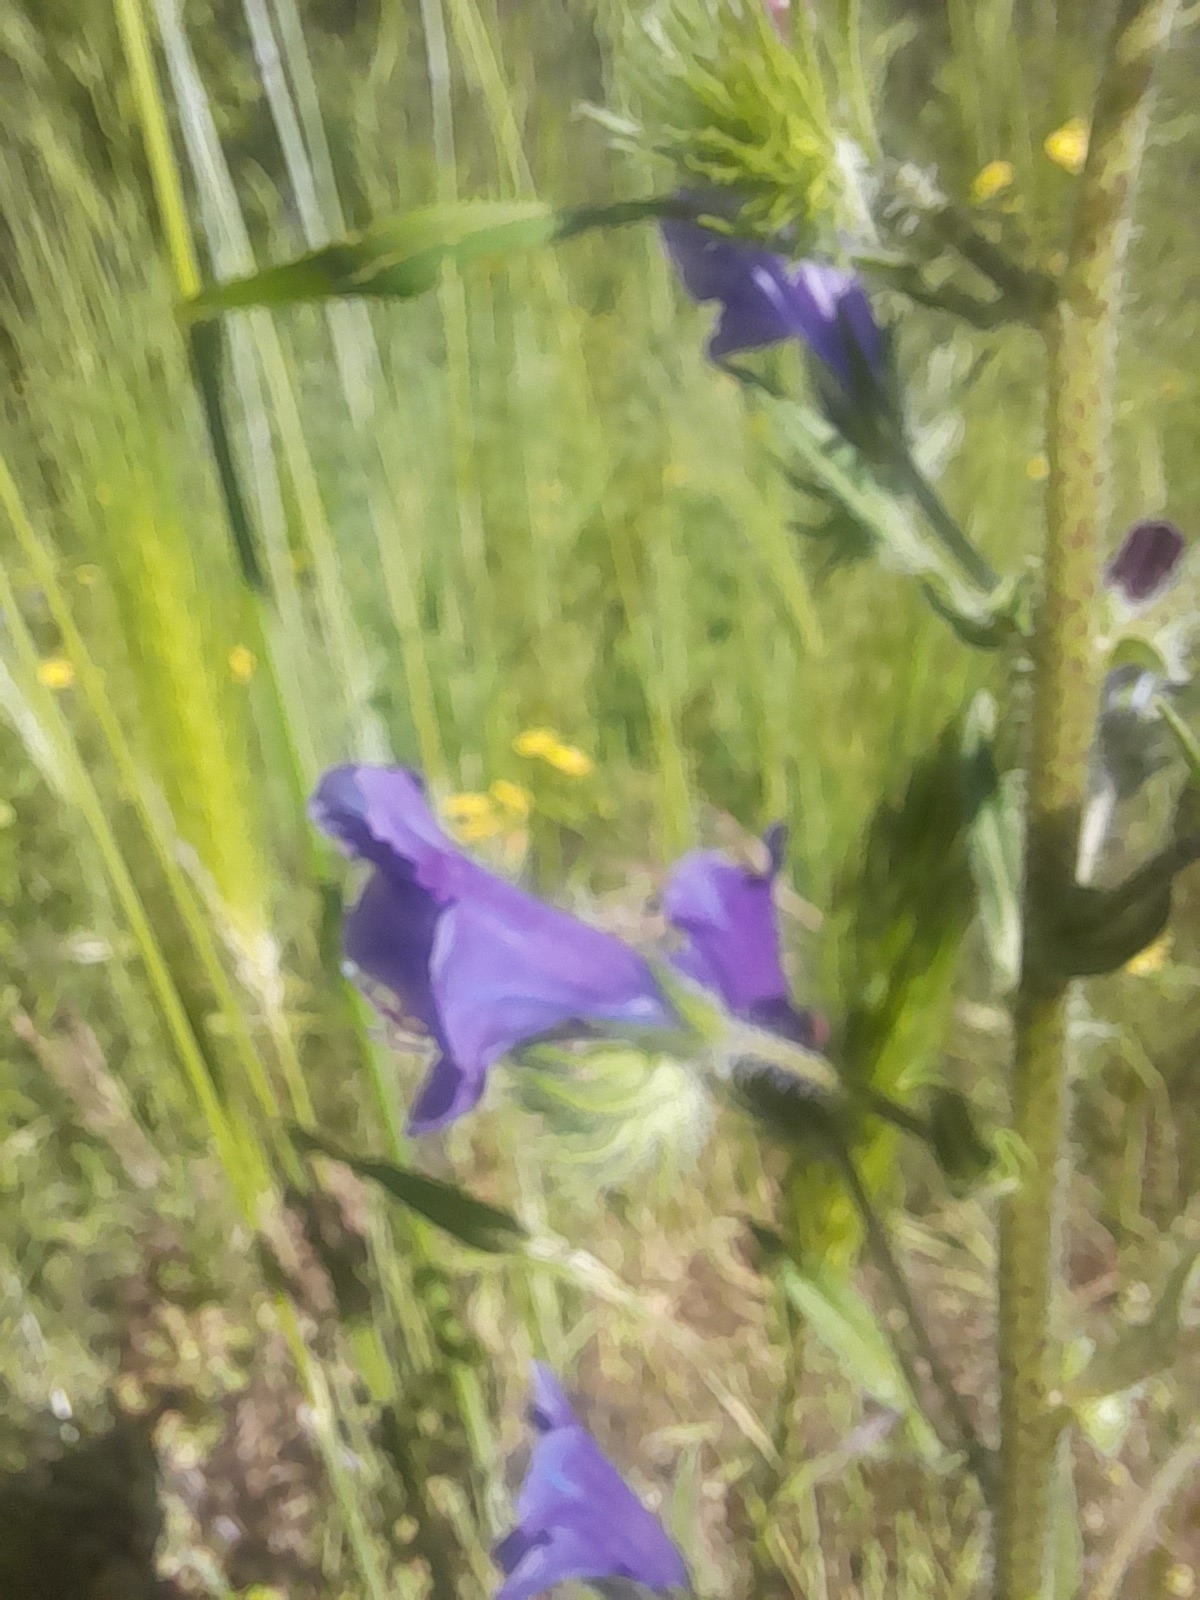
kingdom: Plantae
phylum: Tracheophyta
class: Magnoliopsida
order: Boraginales
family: Boraginaceae
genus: Echium
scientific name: Echium plantagineum
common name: Purple viper's-bugloss
